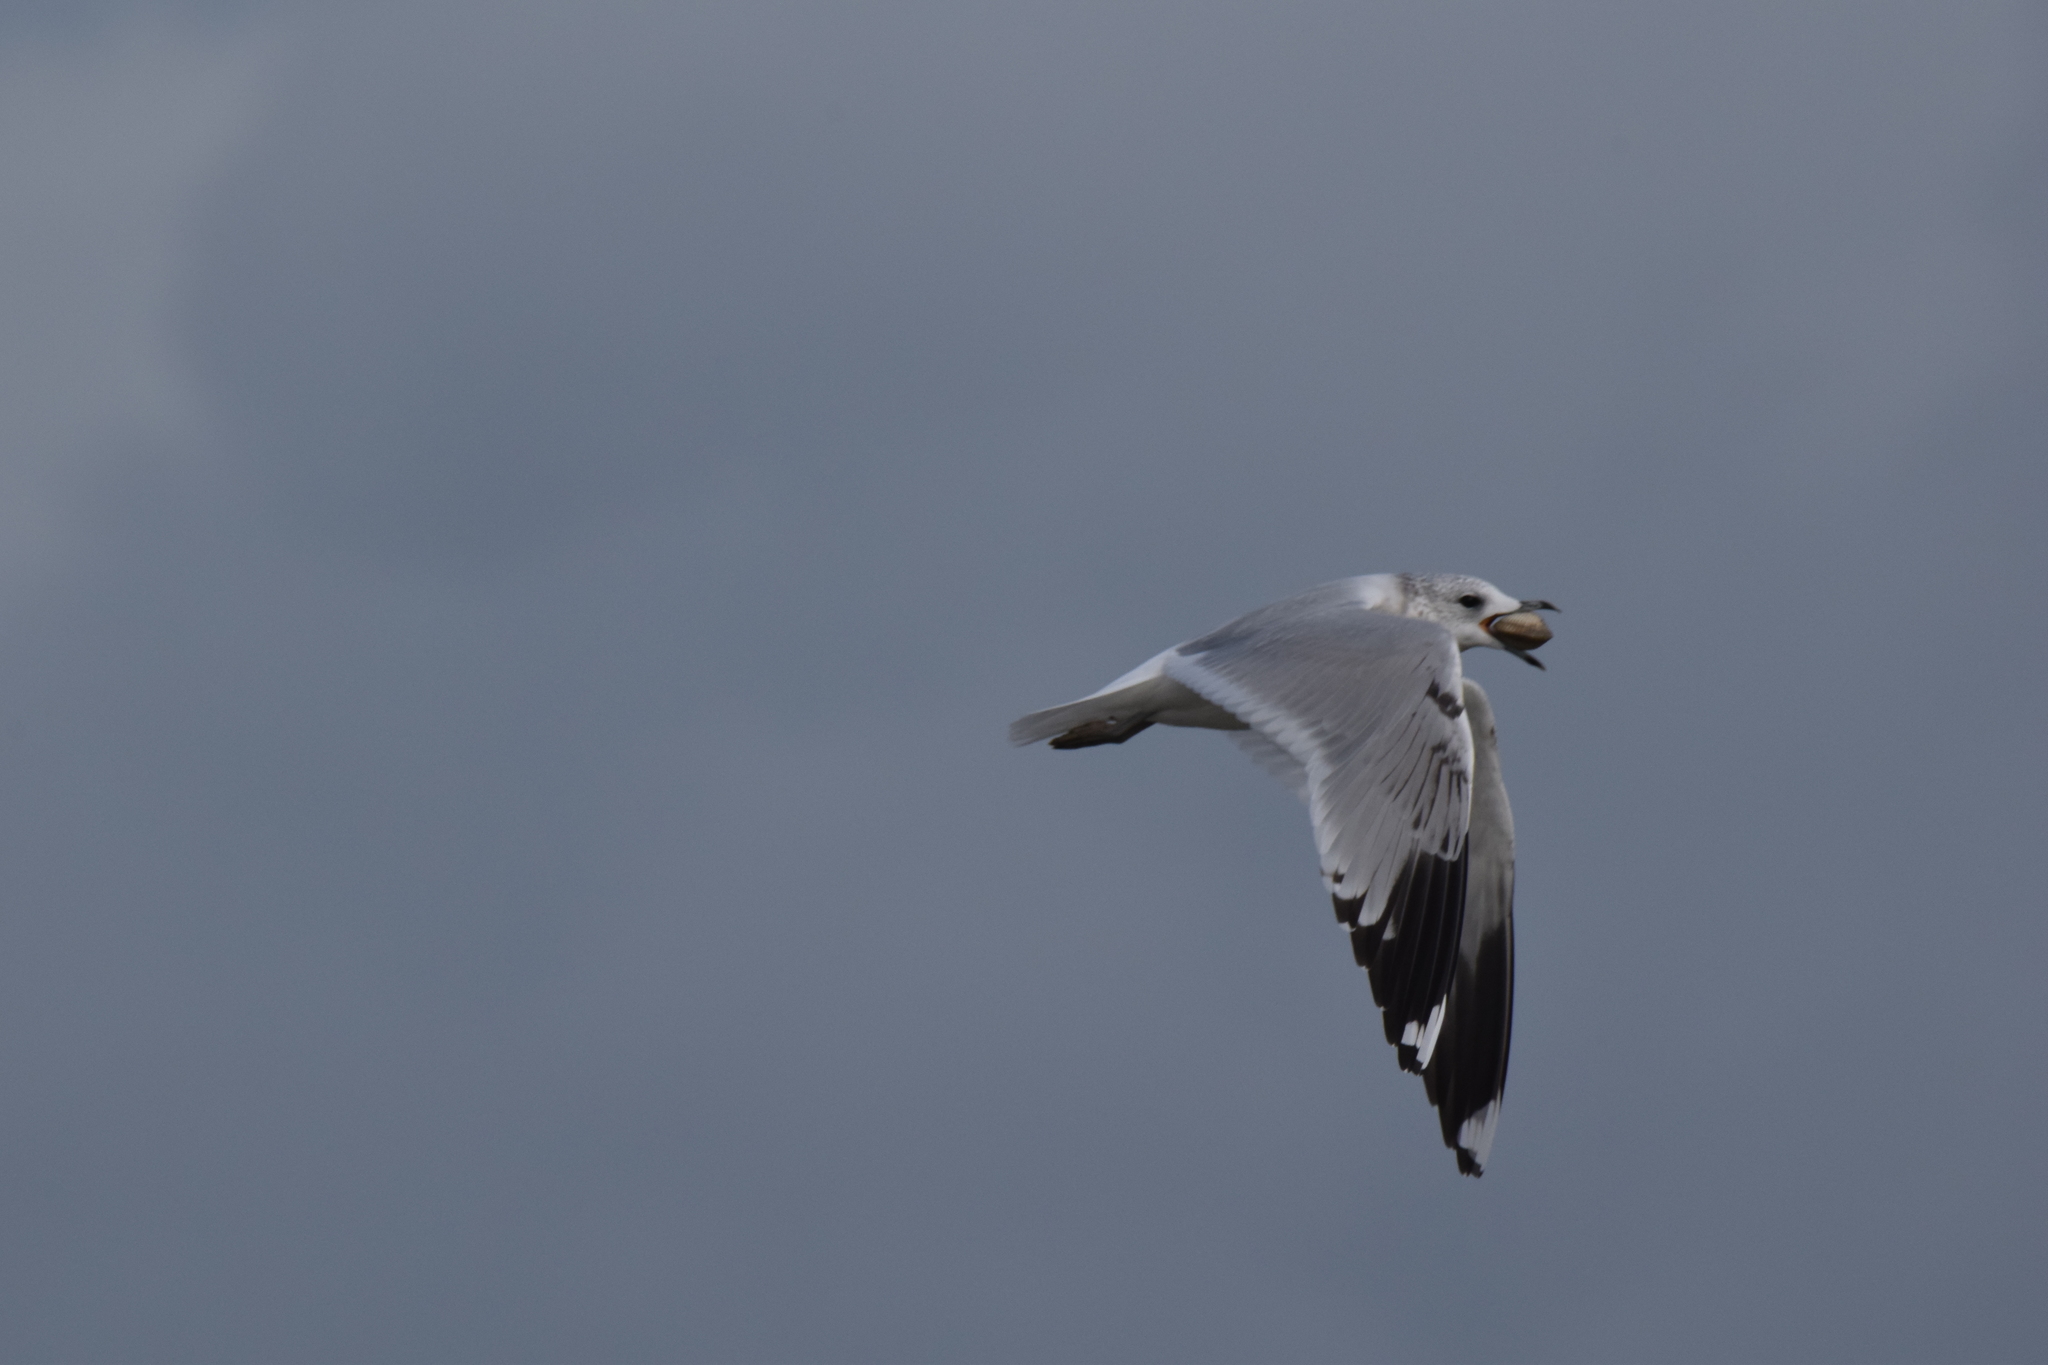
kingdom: Animalia
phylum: Chordata
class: Aves
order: Charadriiformes
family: Laridae
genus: Larus
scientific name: Larus canus
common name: Mew gull
